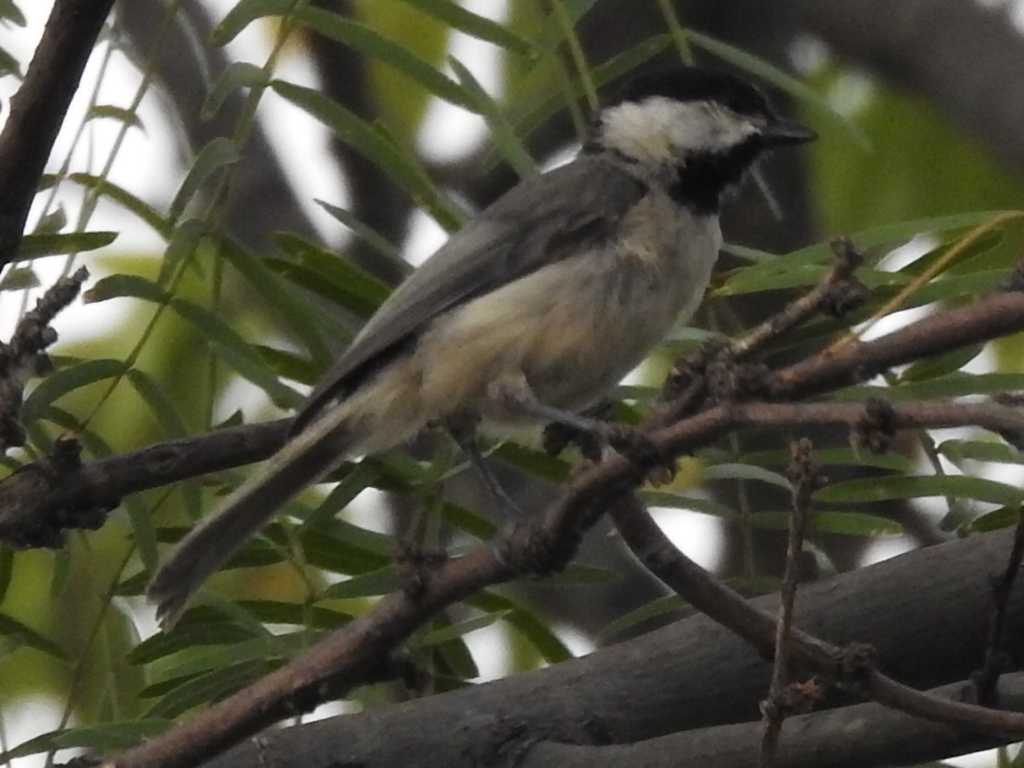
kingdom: Animalia
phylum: Chordata
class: Aves
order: Passeriformes
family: Paridae
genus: Poecile
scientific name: Poecile carolinensis
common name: Carolina chickadee
